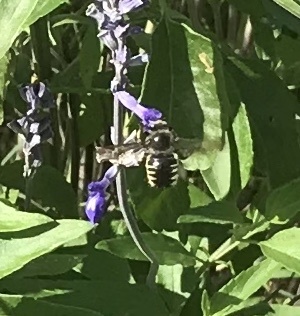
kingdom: Animalia
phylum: Arthropoda
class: Insecta
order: Hymenoptera
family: Apidae
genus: Xylocopa
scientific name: Xylocopa tabaniformis
